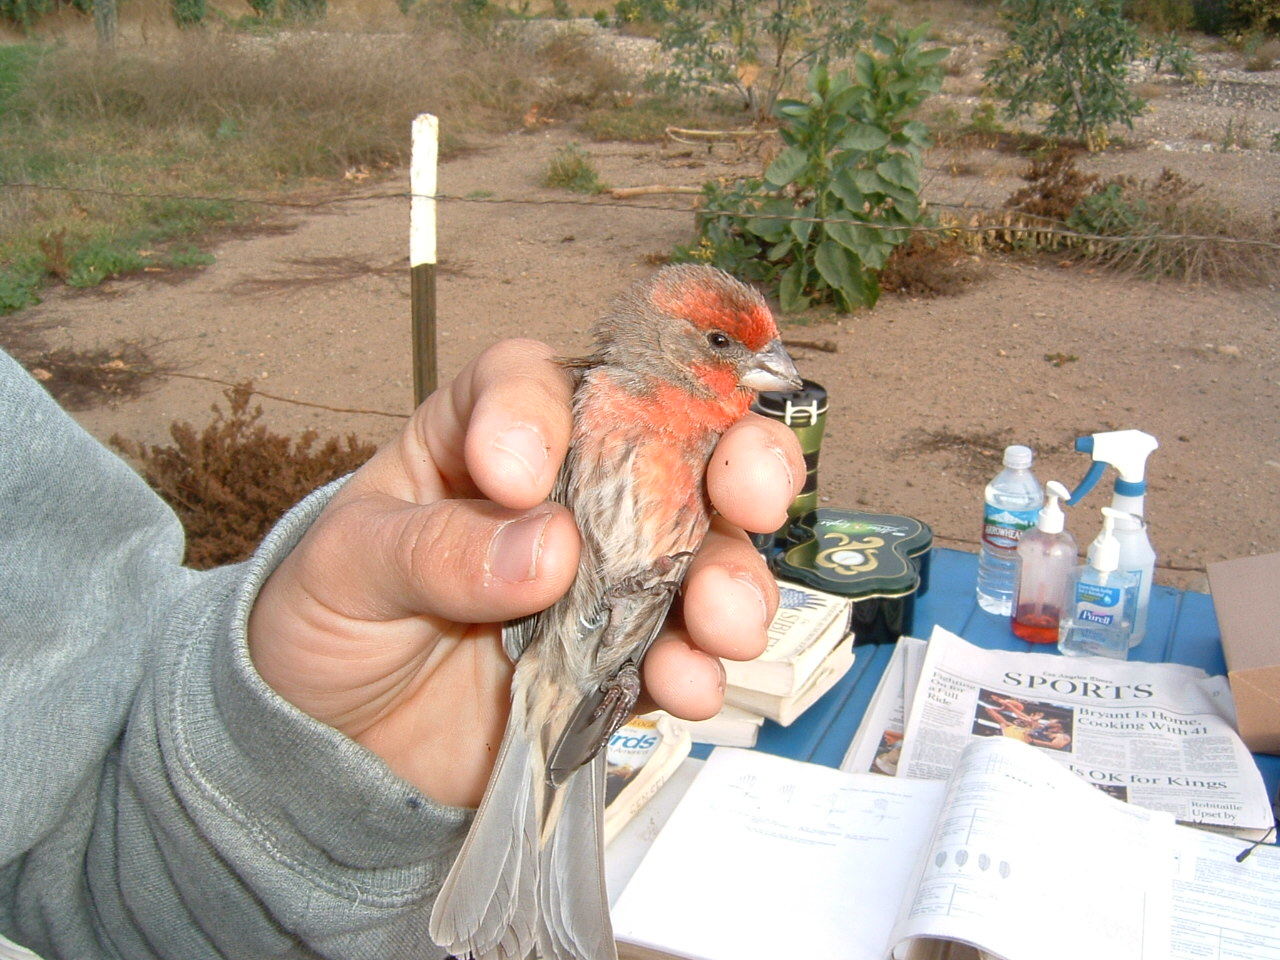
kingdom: Animalia
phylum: Chordata
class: Aves
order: Passeriformes
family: Fringillidae
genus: Haemorhous
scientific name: Haemorhous mexicanus
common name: House finch
